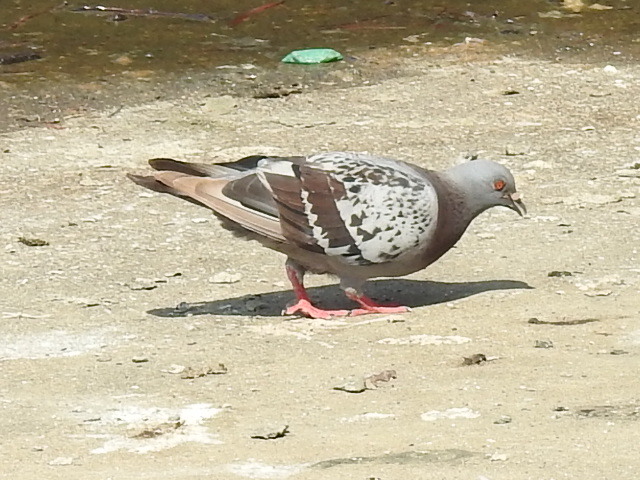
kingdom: Animalia
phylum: Chordata
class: Aves
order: Columbiformes
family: Columbidae
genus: Columba
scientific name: Columba livia
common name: Rock pigeon
